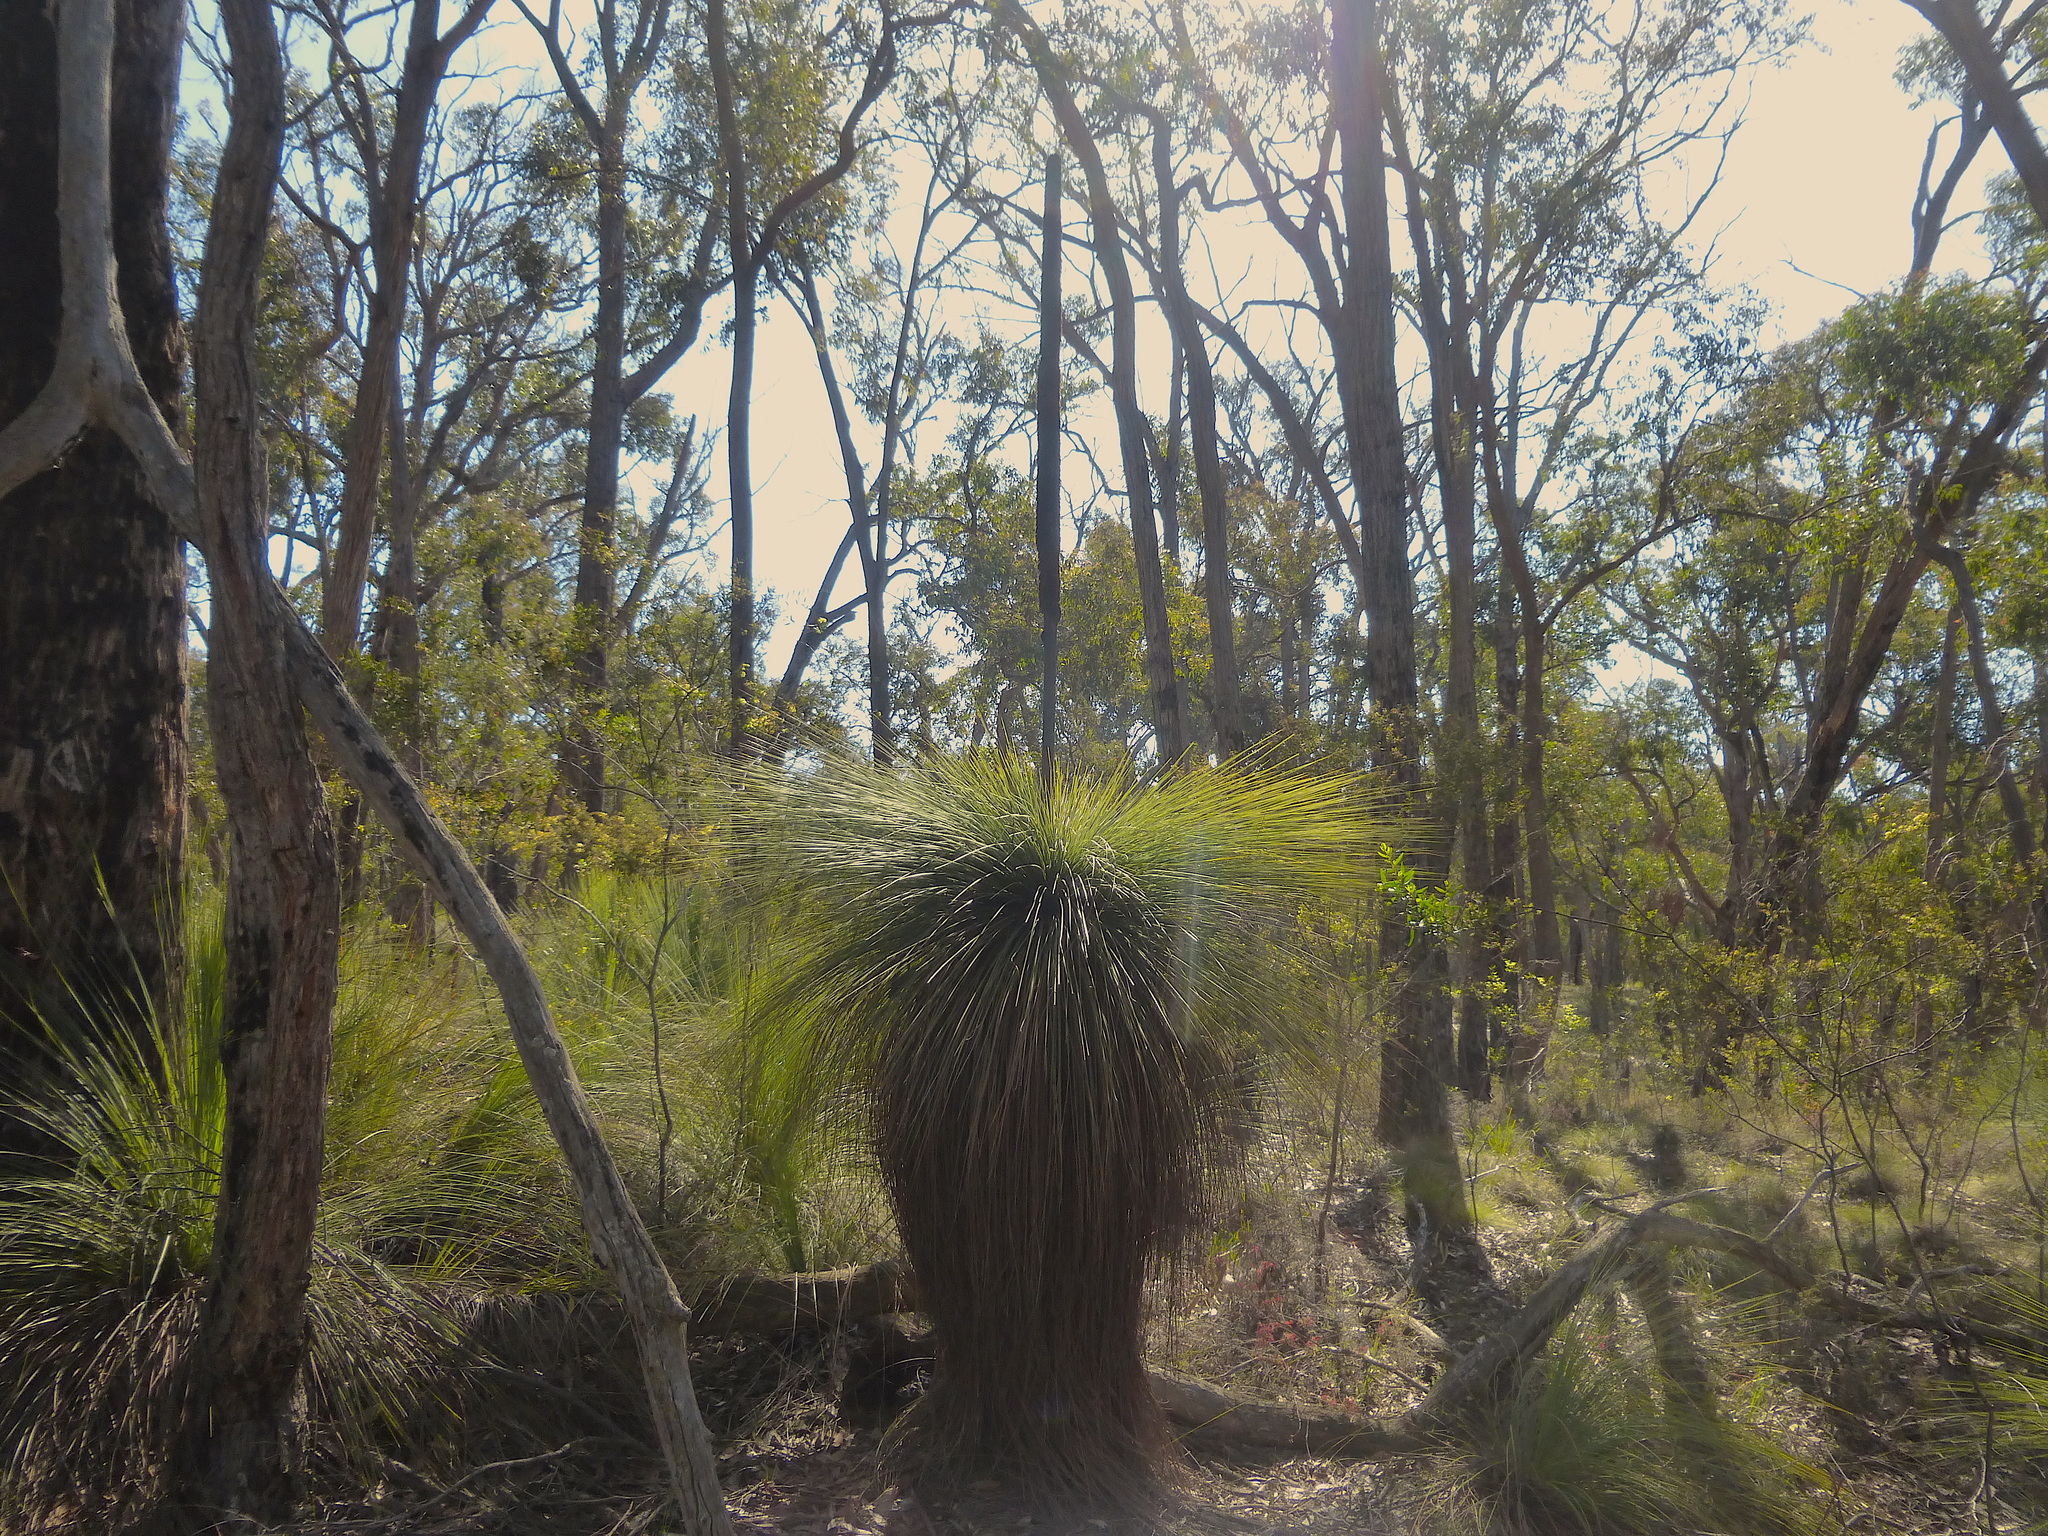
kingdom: Plantae
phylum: Tracheophyta
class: Liliopsida
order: Asparagales
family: Asphodelaceae
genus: Xanthorrhoea
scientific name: Xanthorrhoea australis
